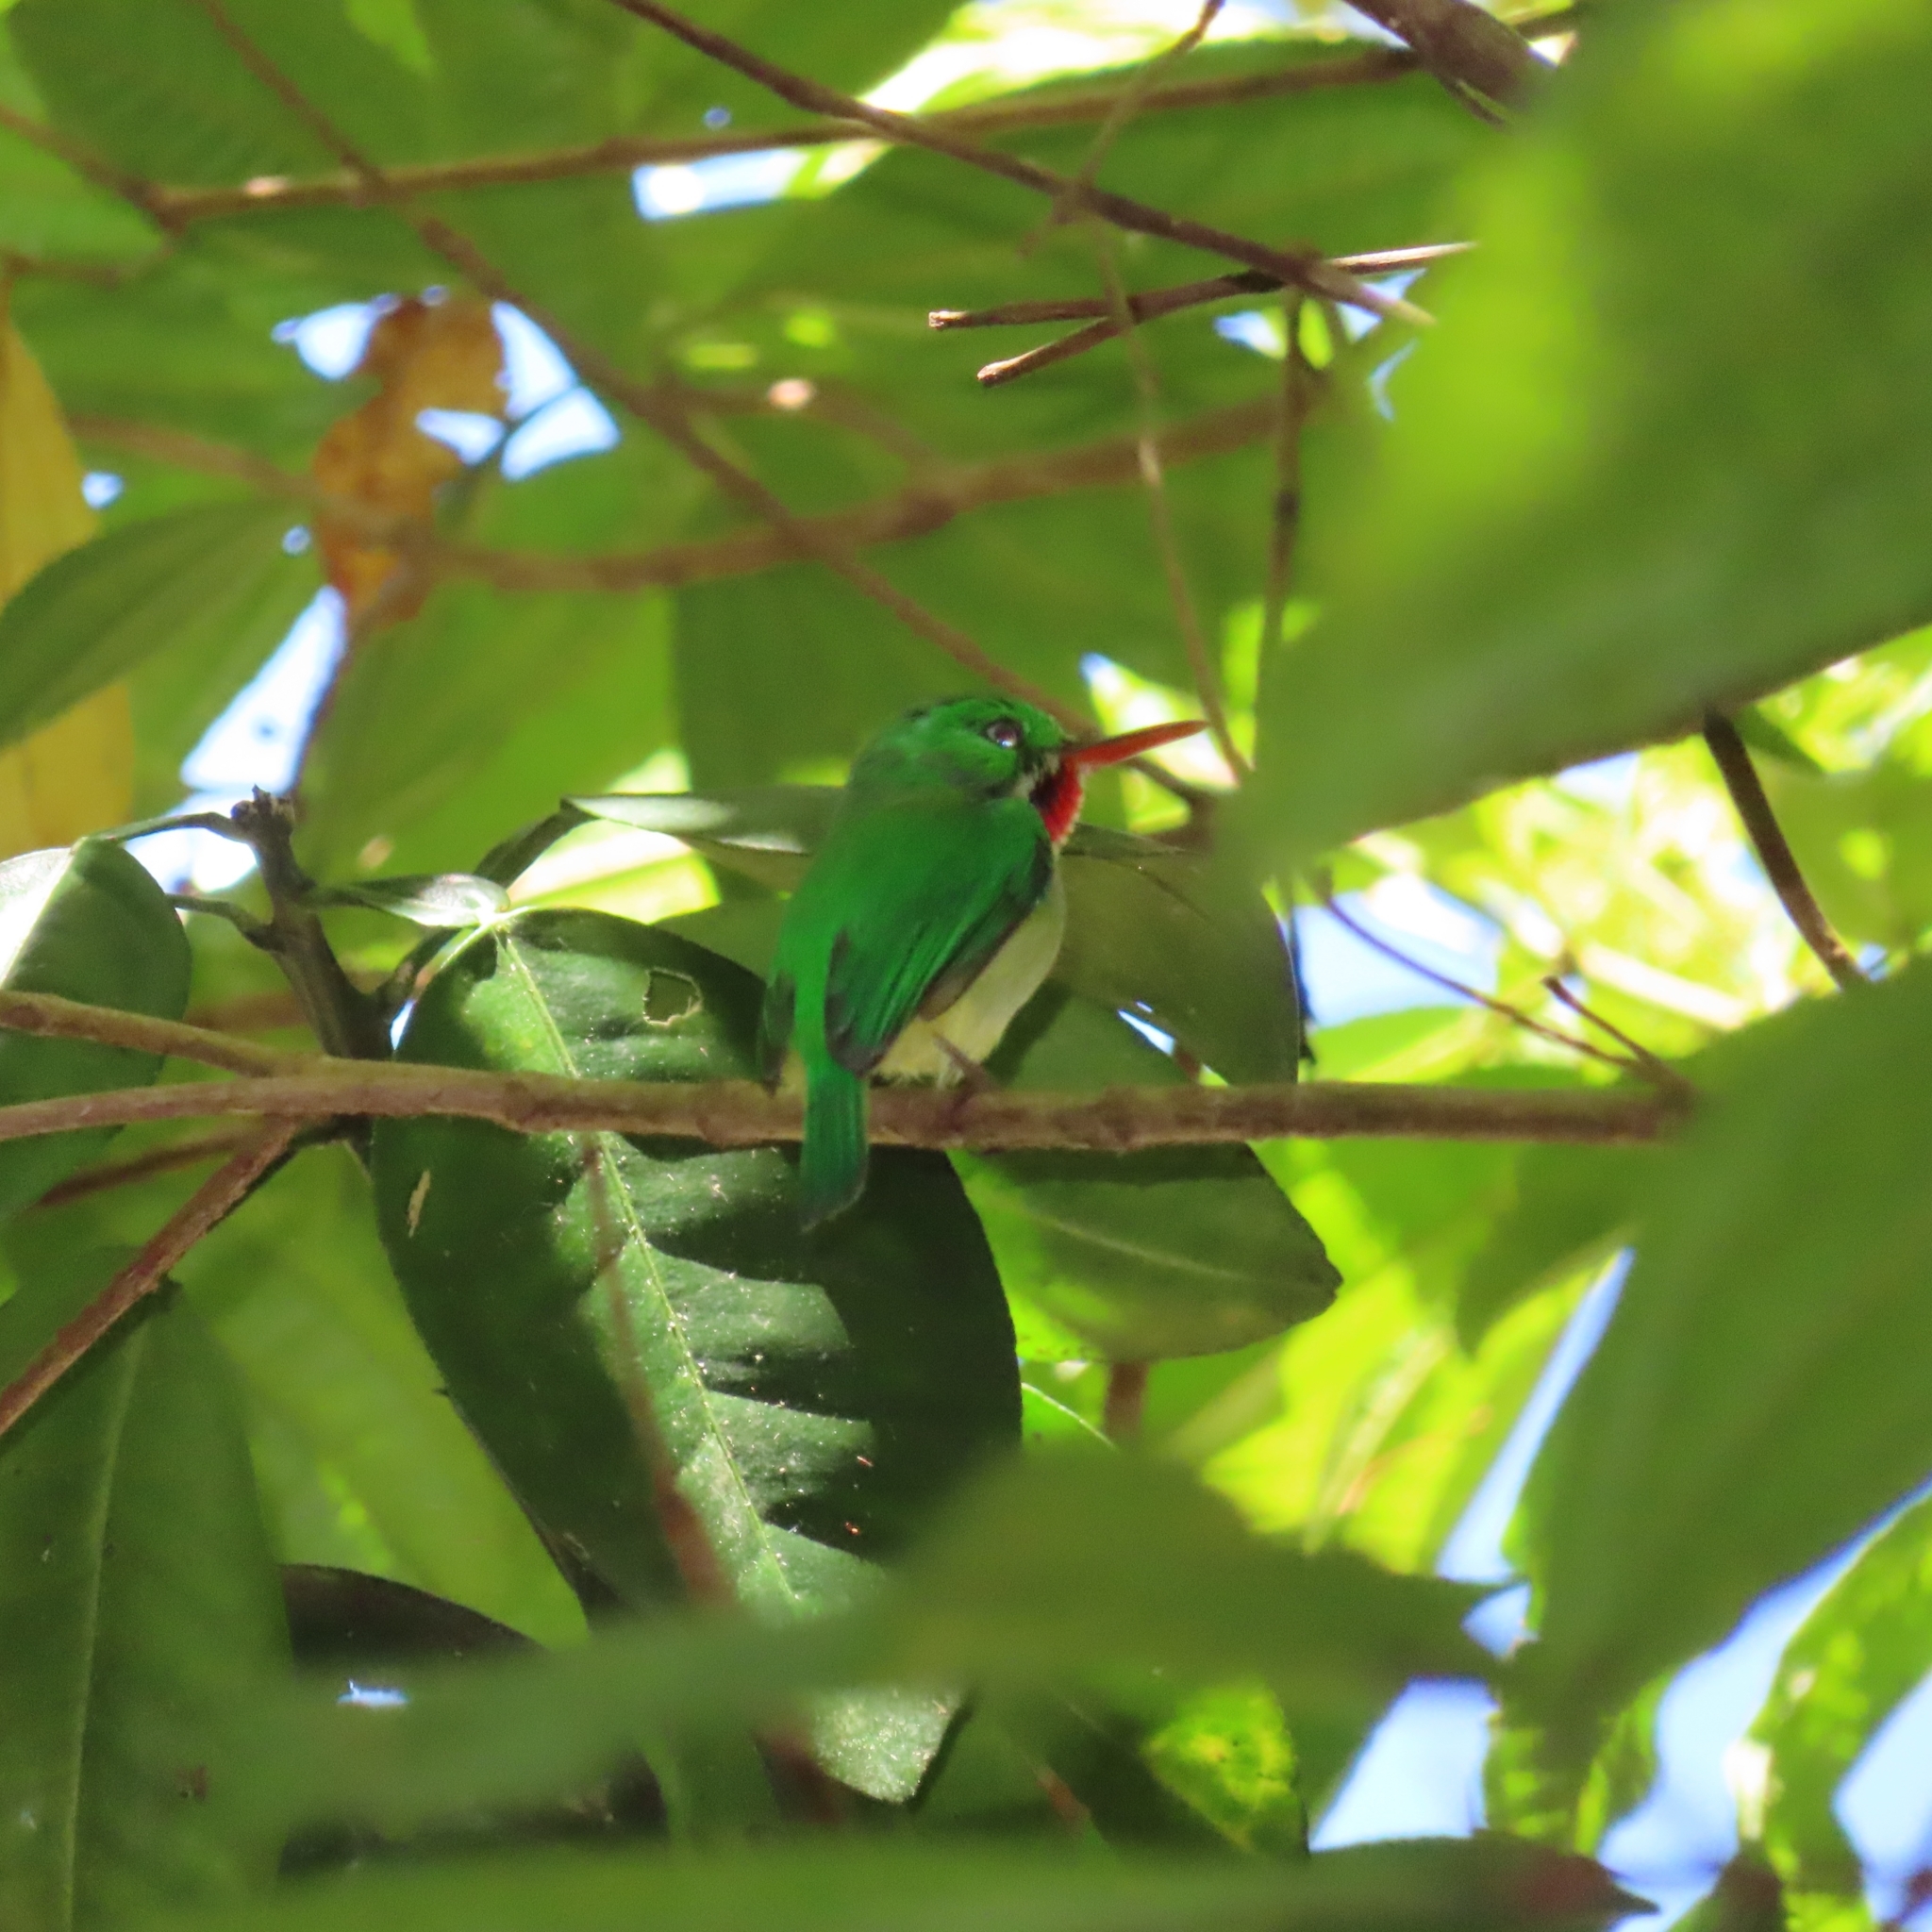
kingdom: Animalia
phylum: Chordata
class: Aves
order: Coraciiformes
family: Todidae
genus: Todus
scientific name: Todus mexicanus
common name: Puerto rican tody
